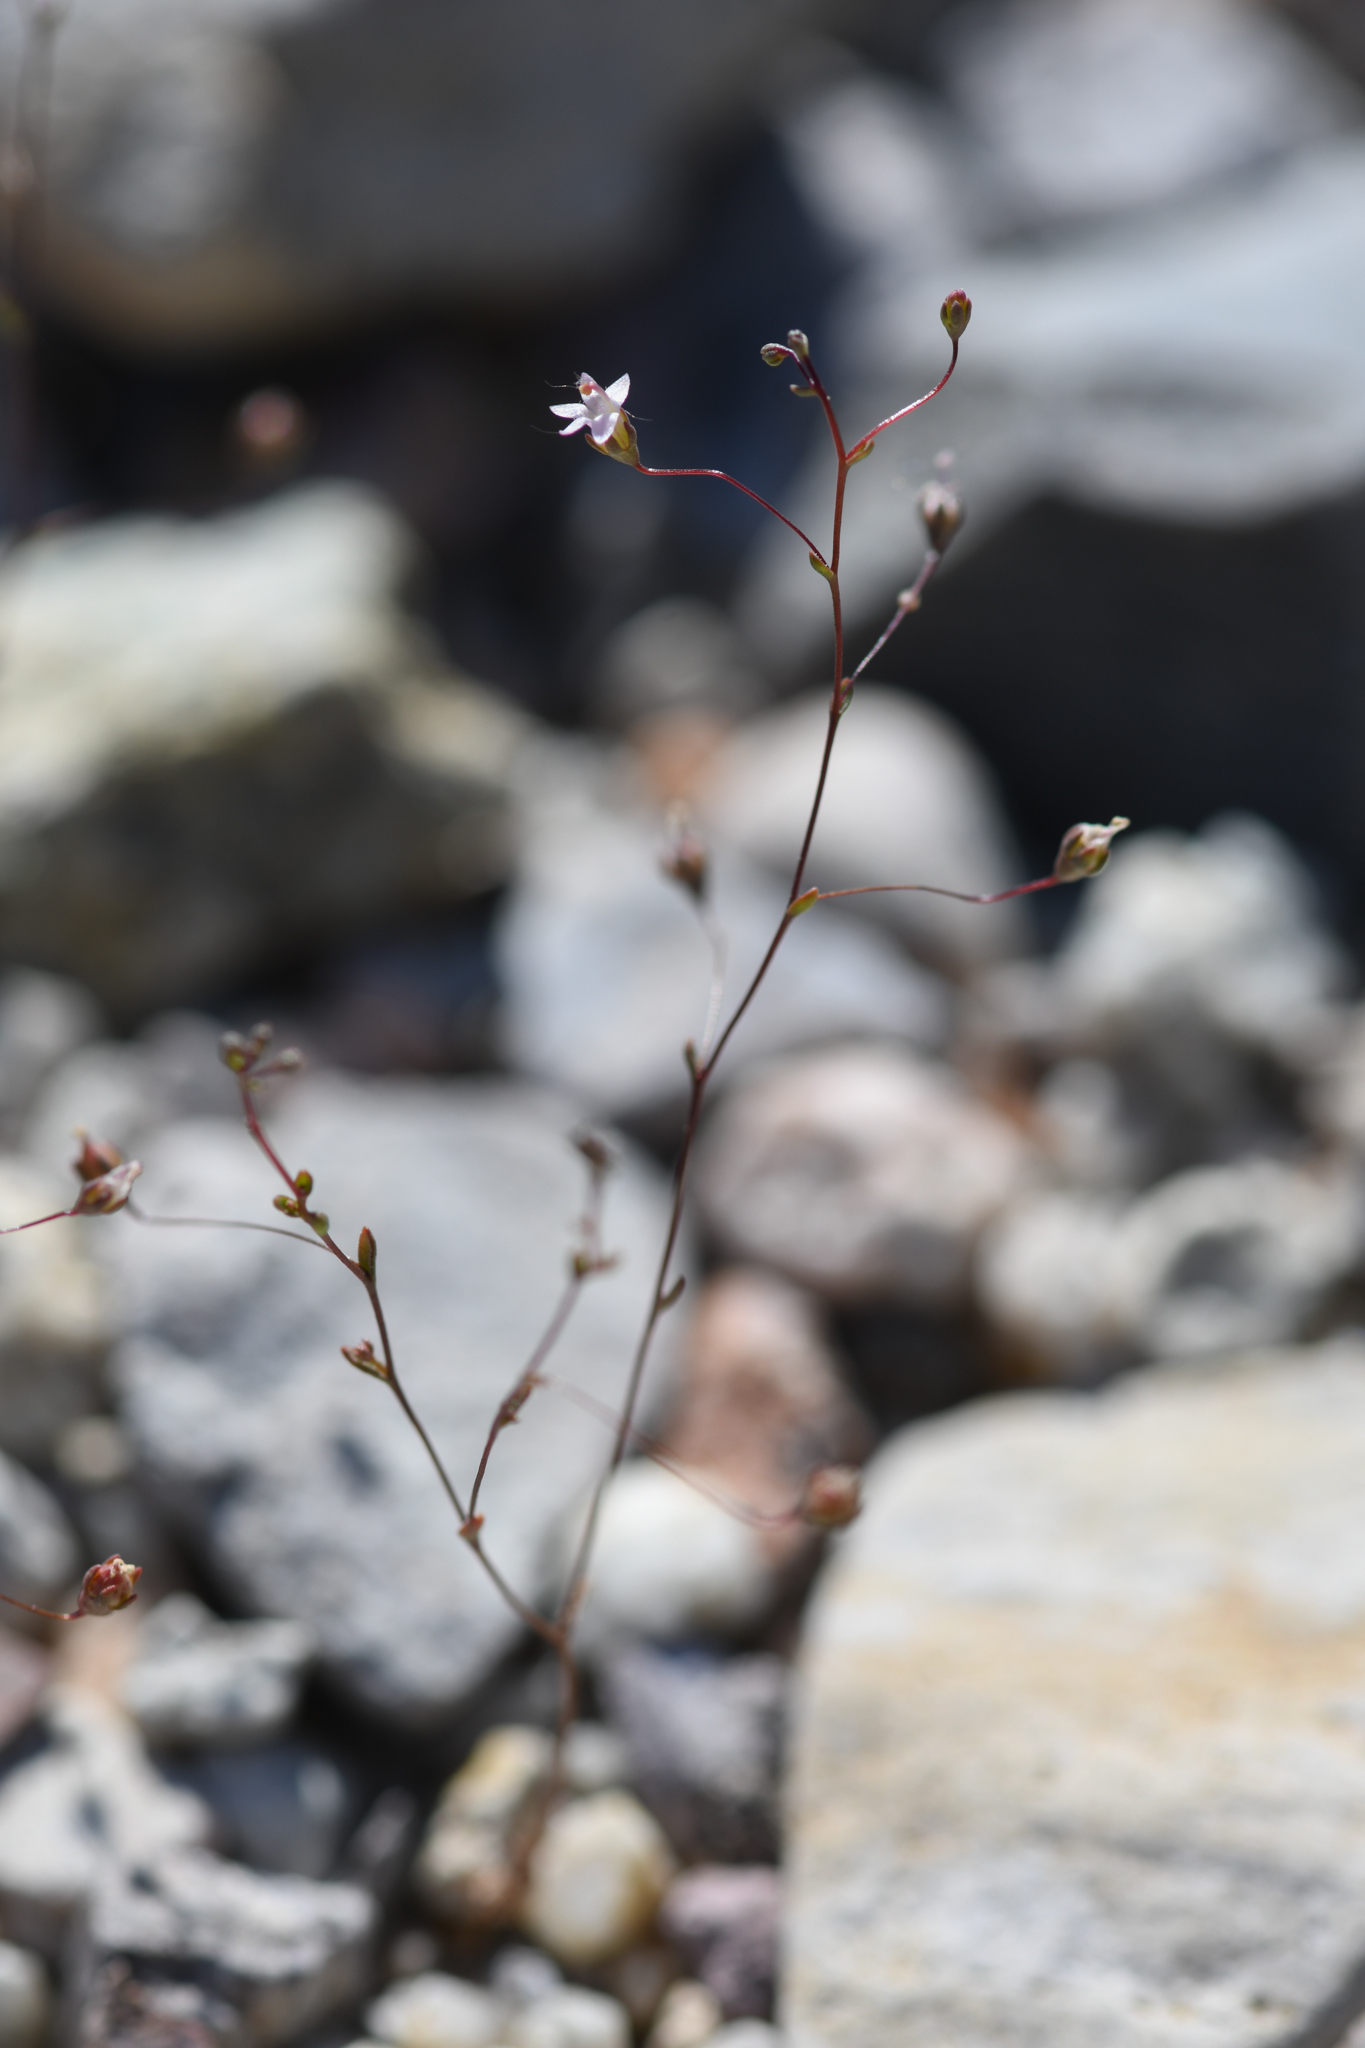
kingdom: Plantae
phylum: Tracheophyta
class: Magnoliopsida
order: Asterales
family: Campanulaceae
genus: Nemacladus
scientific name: Nemacladus secundiflorus
